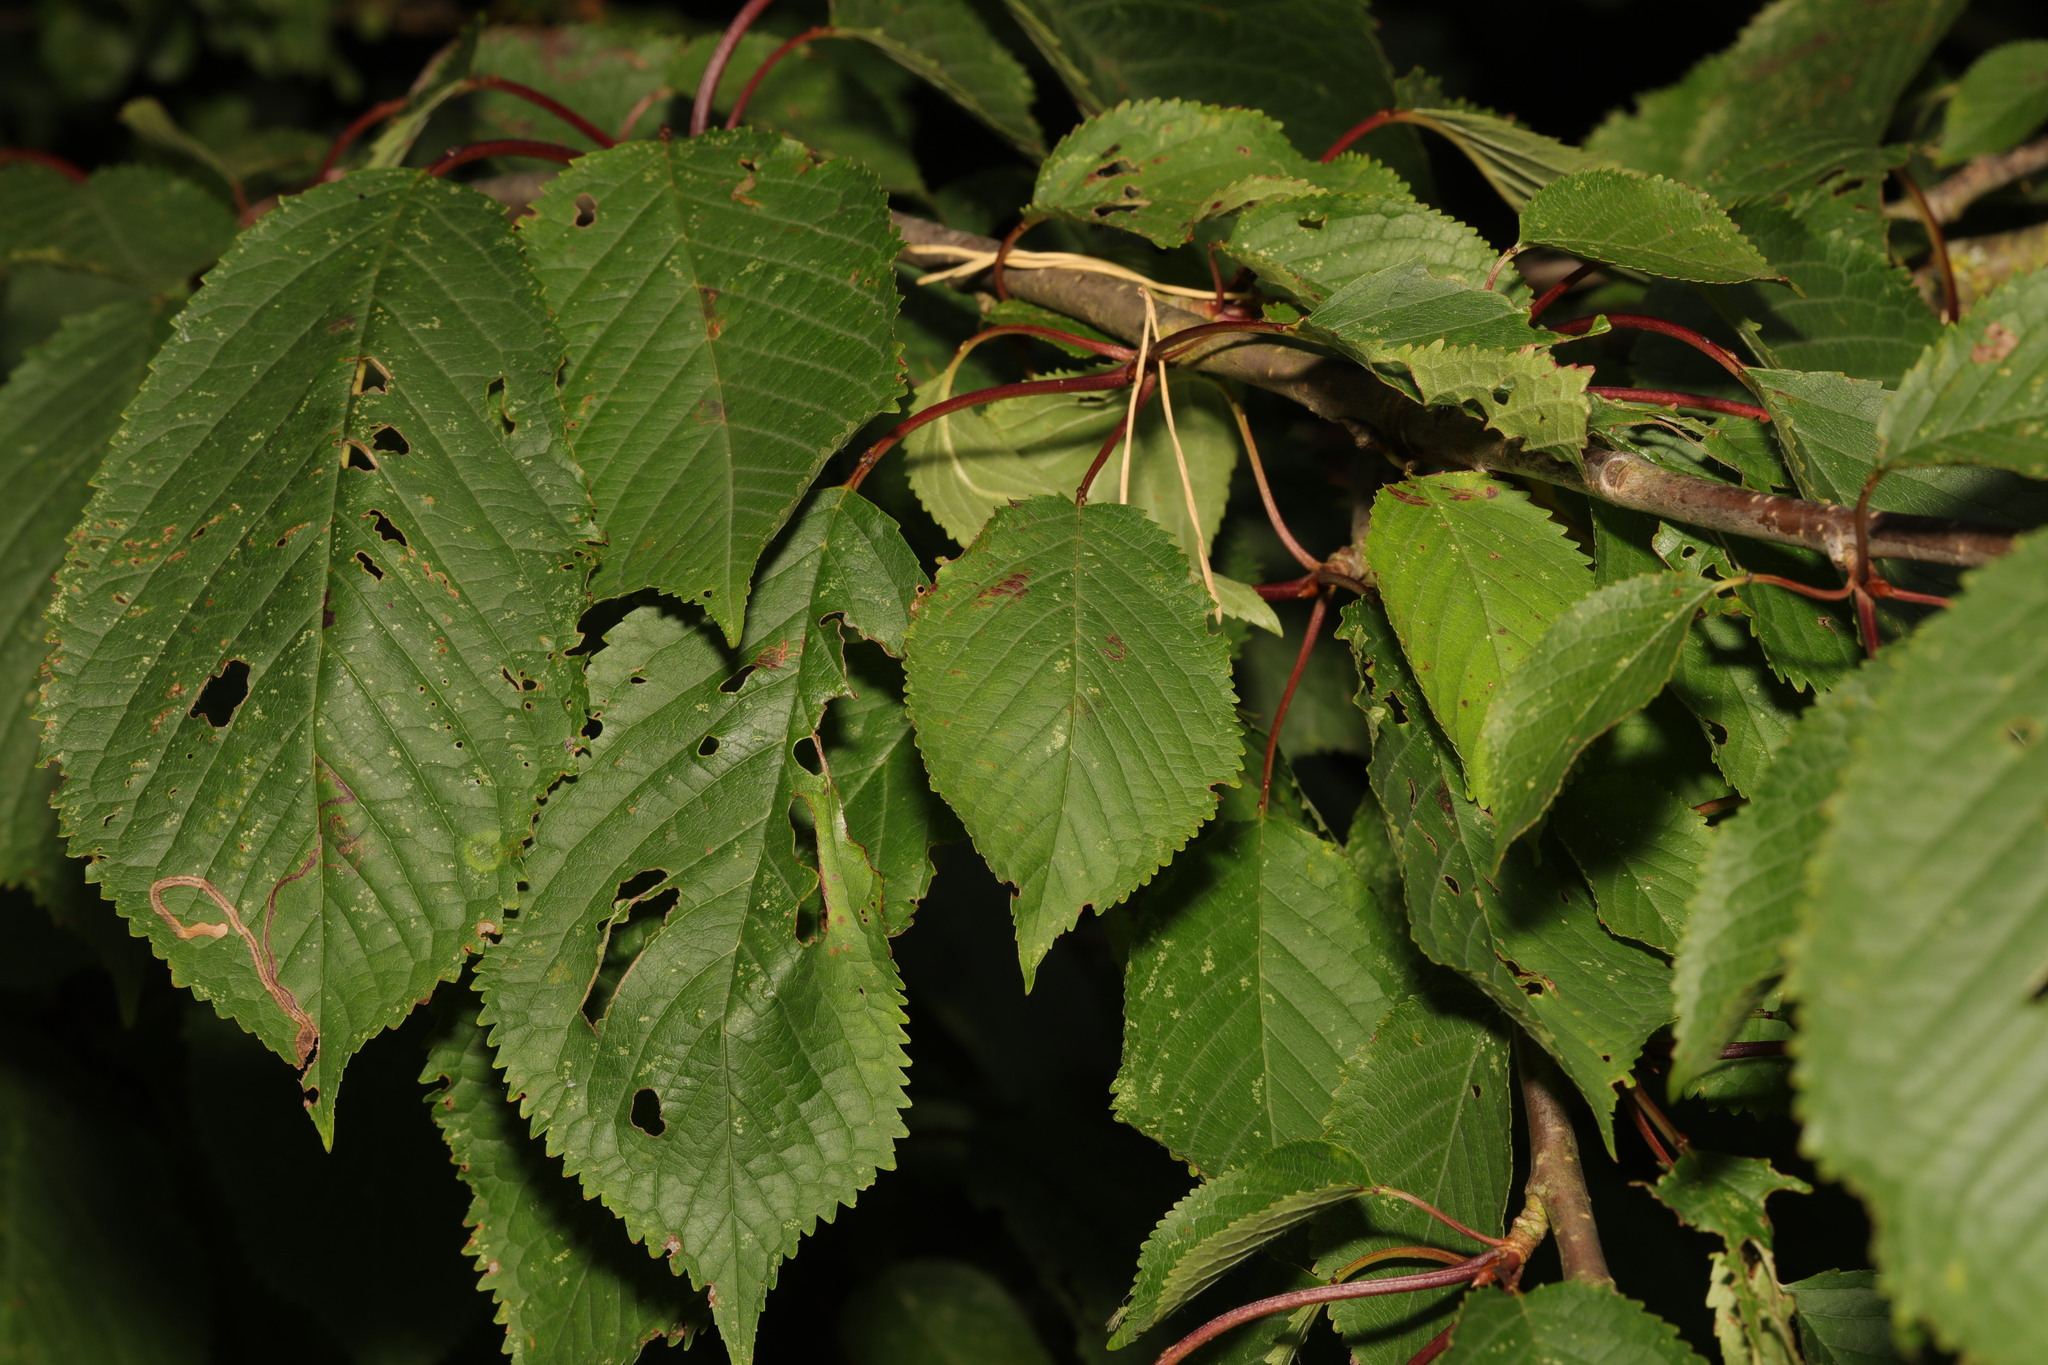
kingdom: Plantae
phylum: Tracheophyta
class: Magnoliopsida
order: Rosales
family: Rosaceae
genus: Prunus
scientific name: Prunus avium
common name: Sweet cherry
